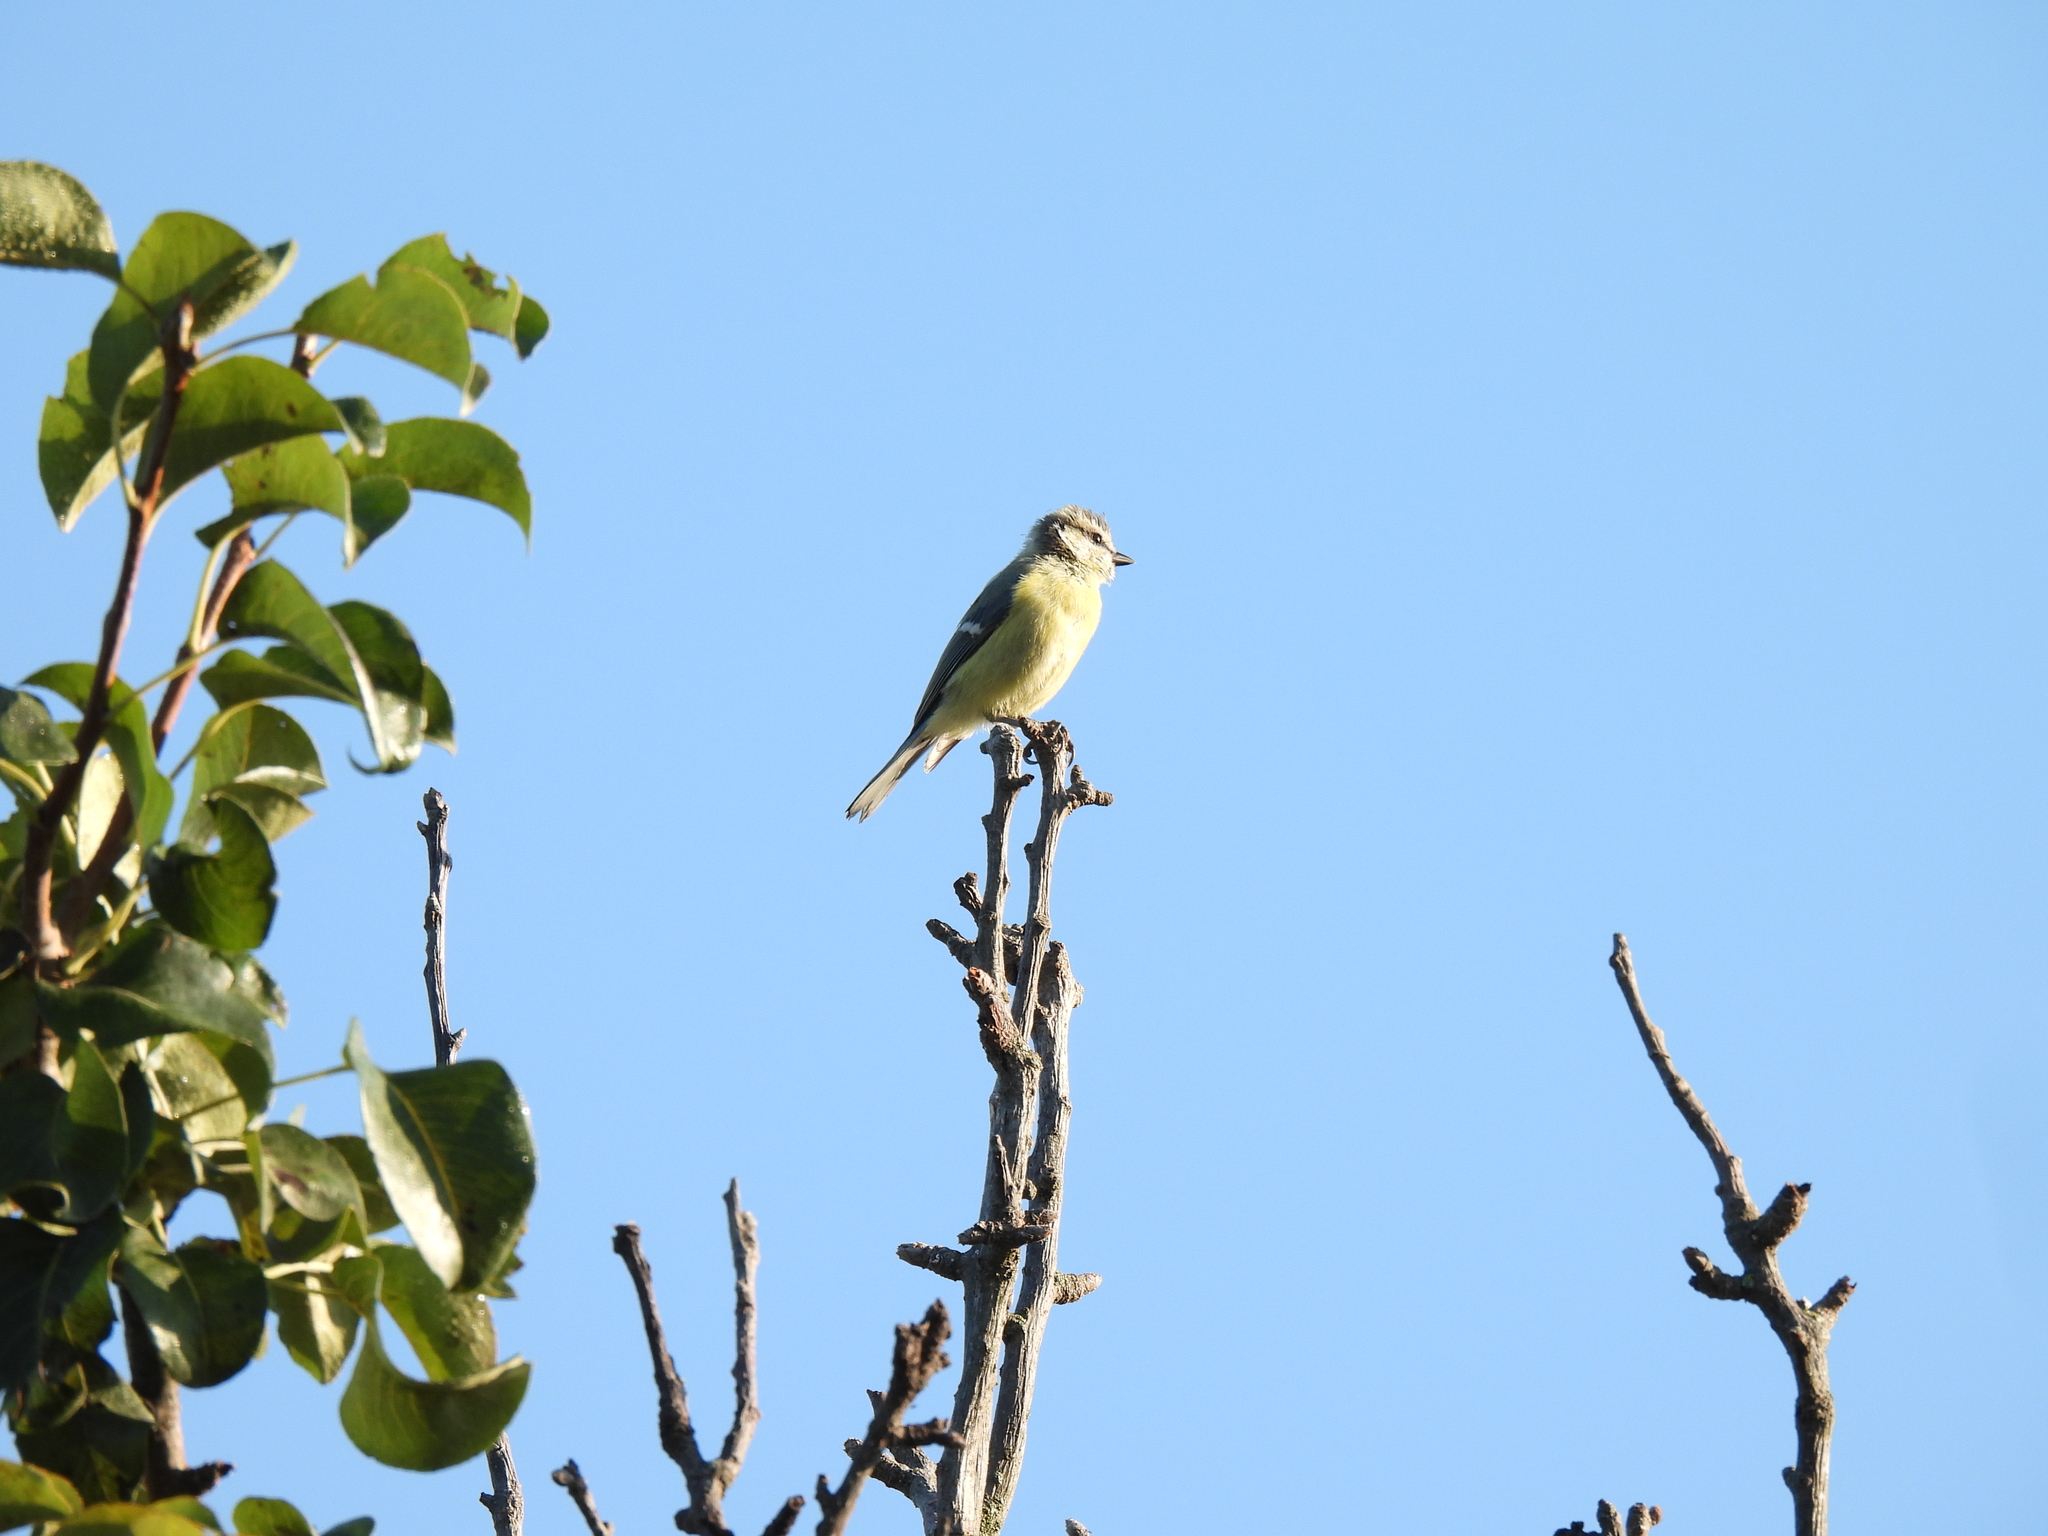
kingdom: Animalia
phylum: Chordata
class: Aves
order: Passeriformes
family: Paridae
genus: Cyanistes
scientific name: Cyanistes caeruleus
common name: Eurasian blue tit
